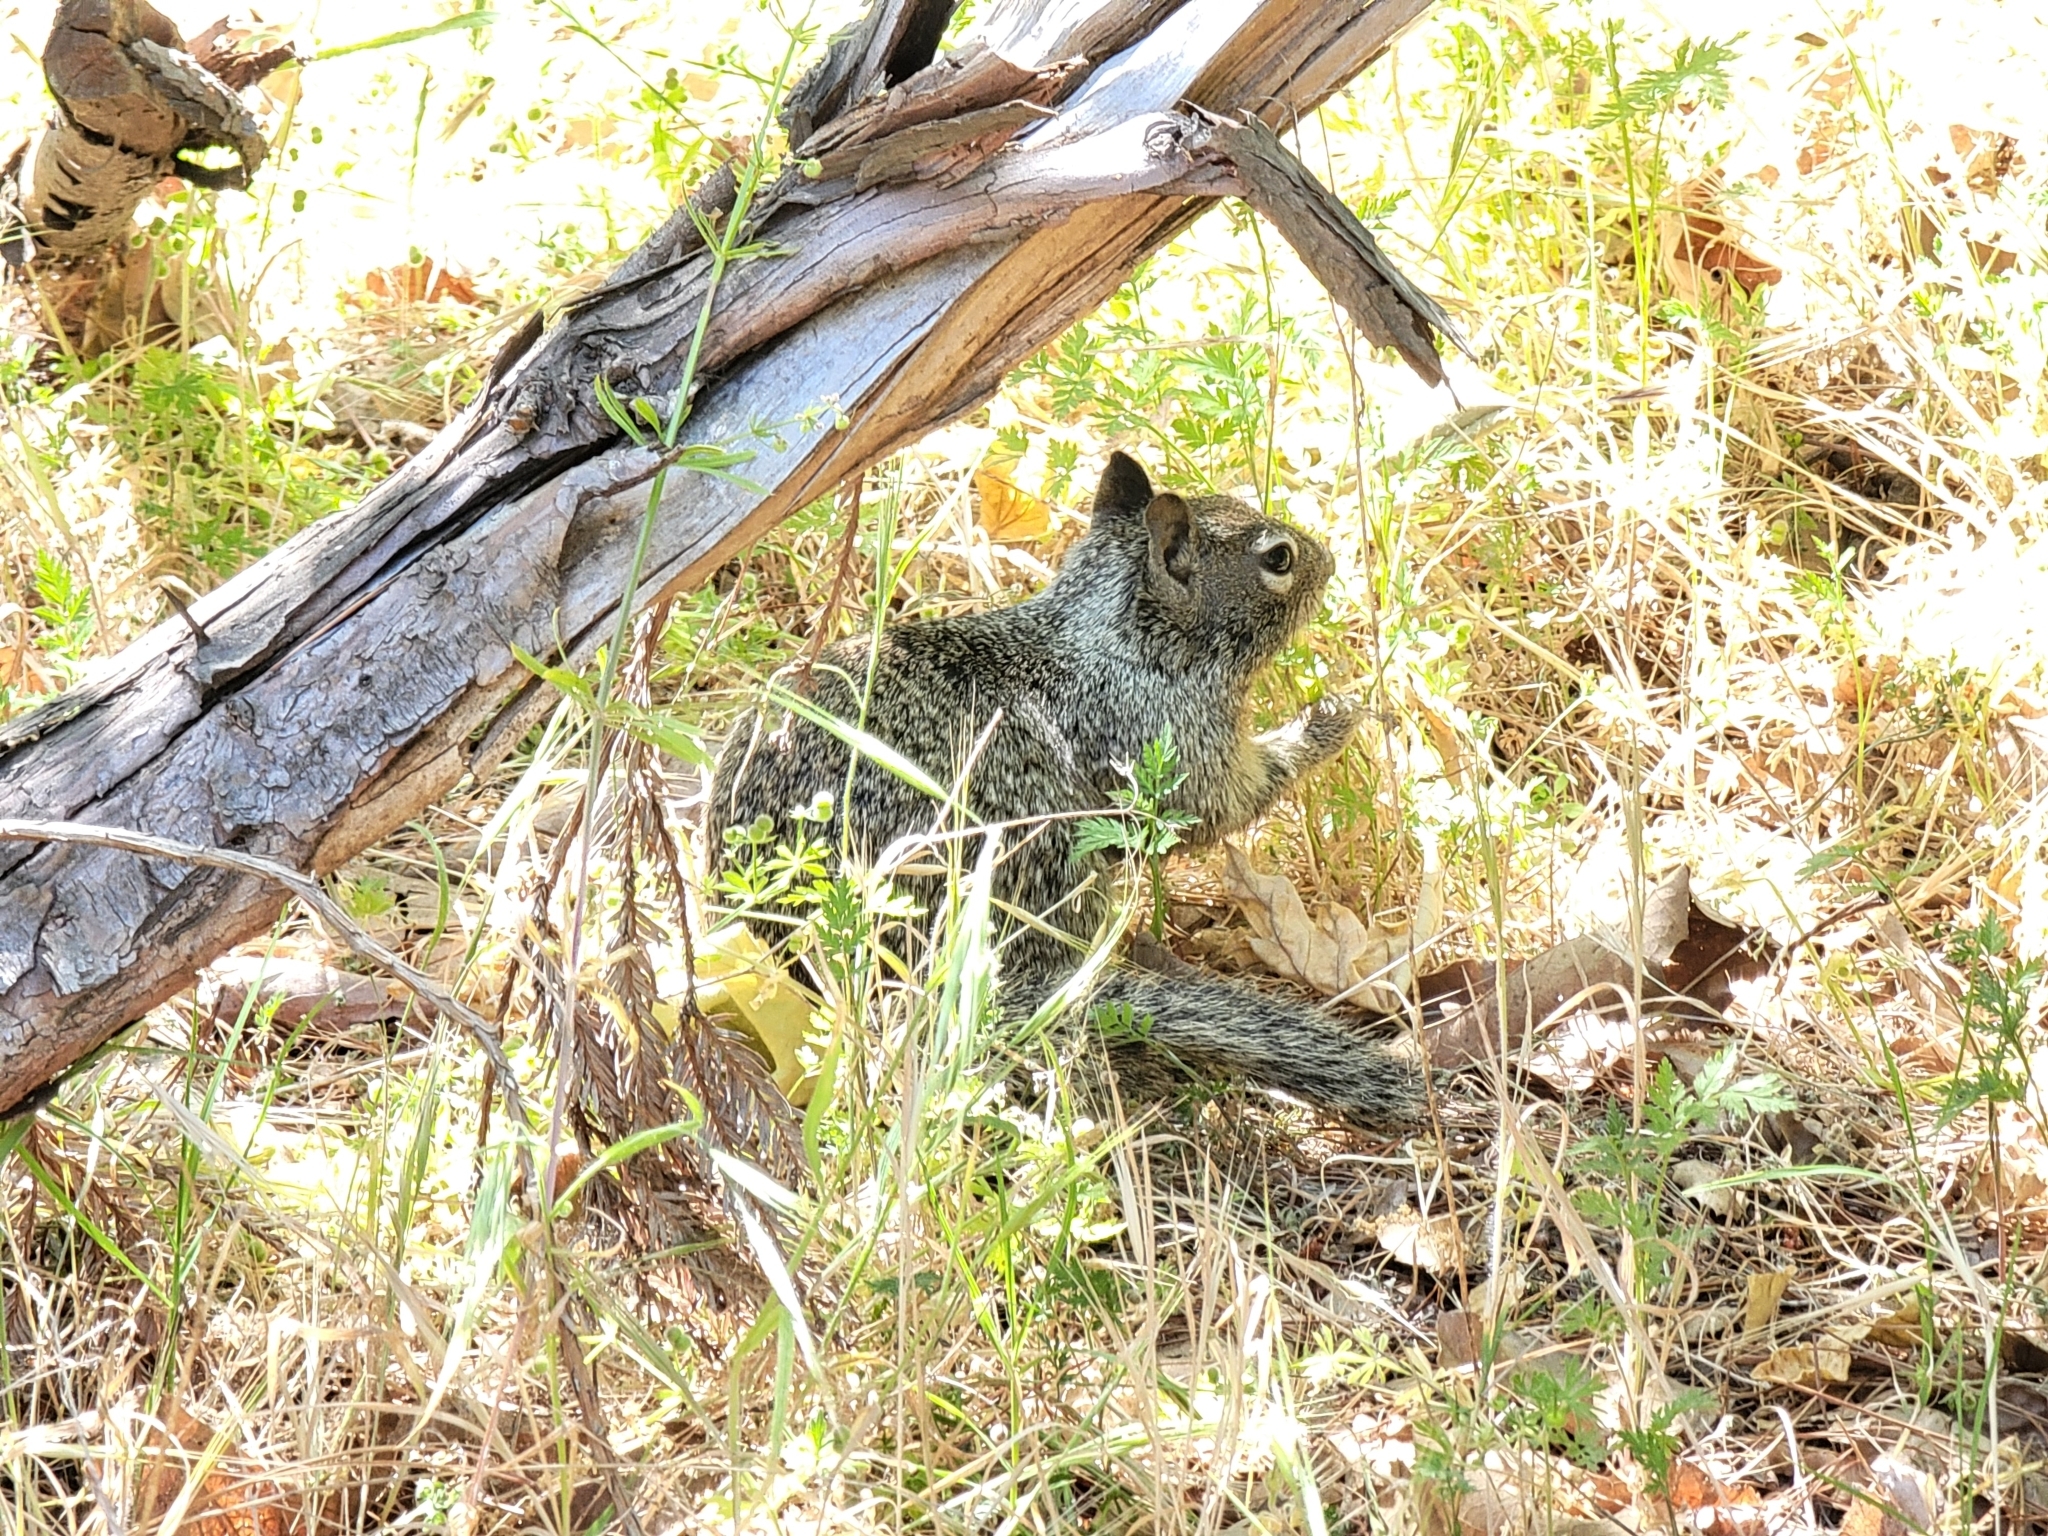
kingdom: Animalia
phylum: Chordata
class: Mammalia
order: Rodentia
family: Sciuridae
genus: Otospermophilus
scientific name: Otospermophilus beecheyi
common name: California ground squirrel
